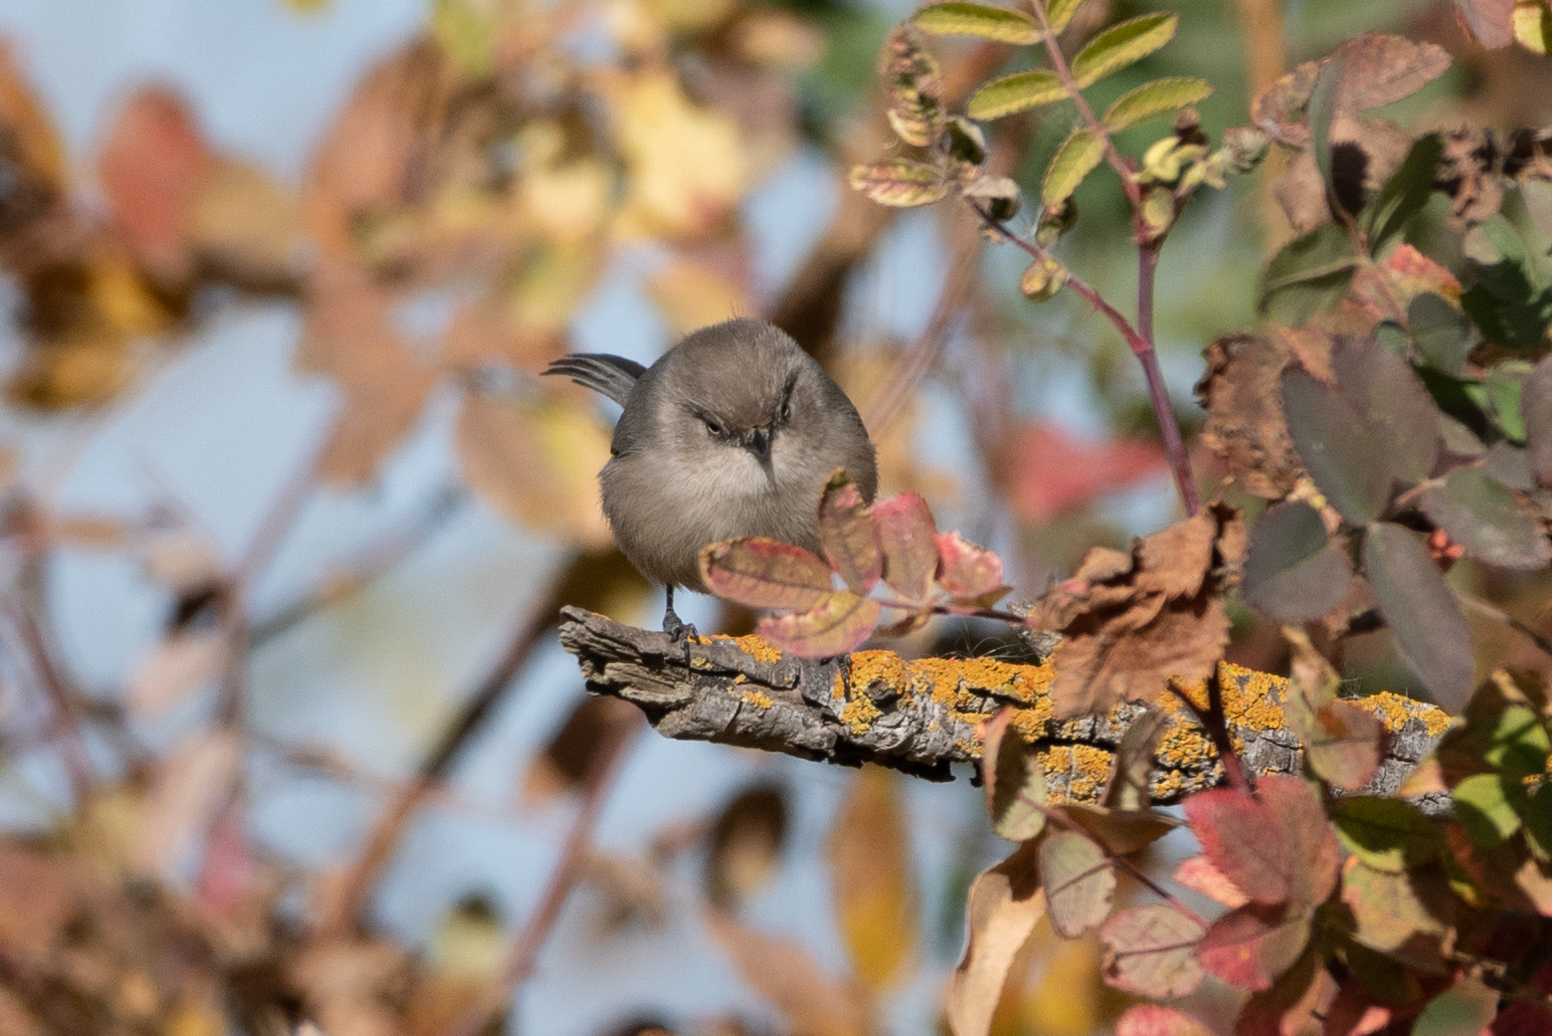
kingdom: Animalia
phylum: Chordata
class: Aves
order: Passeriformes
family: Aegithalidae
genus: Psaltriparus
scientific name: Psaltriparus minimus
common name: American bushtit
